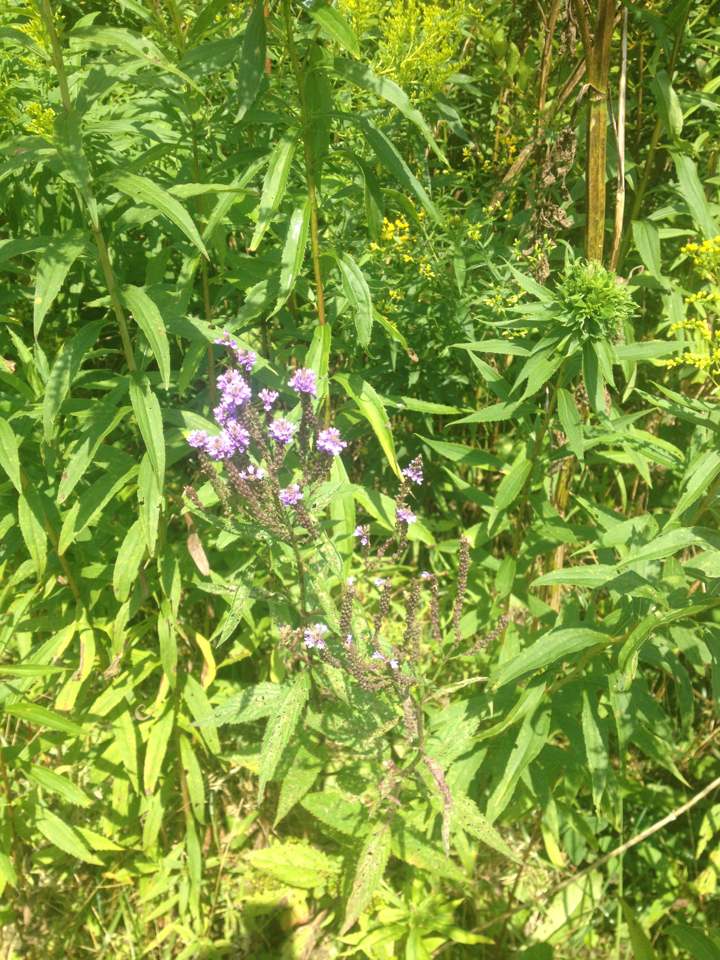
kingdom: Plantae
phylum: Tracheophyta
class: Magnoliopsida
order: Lamiales
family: Verbenaceae
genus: Verbena
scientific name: Verbena hastata
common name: American blue vervain
